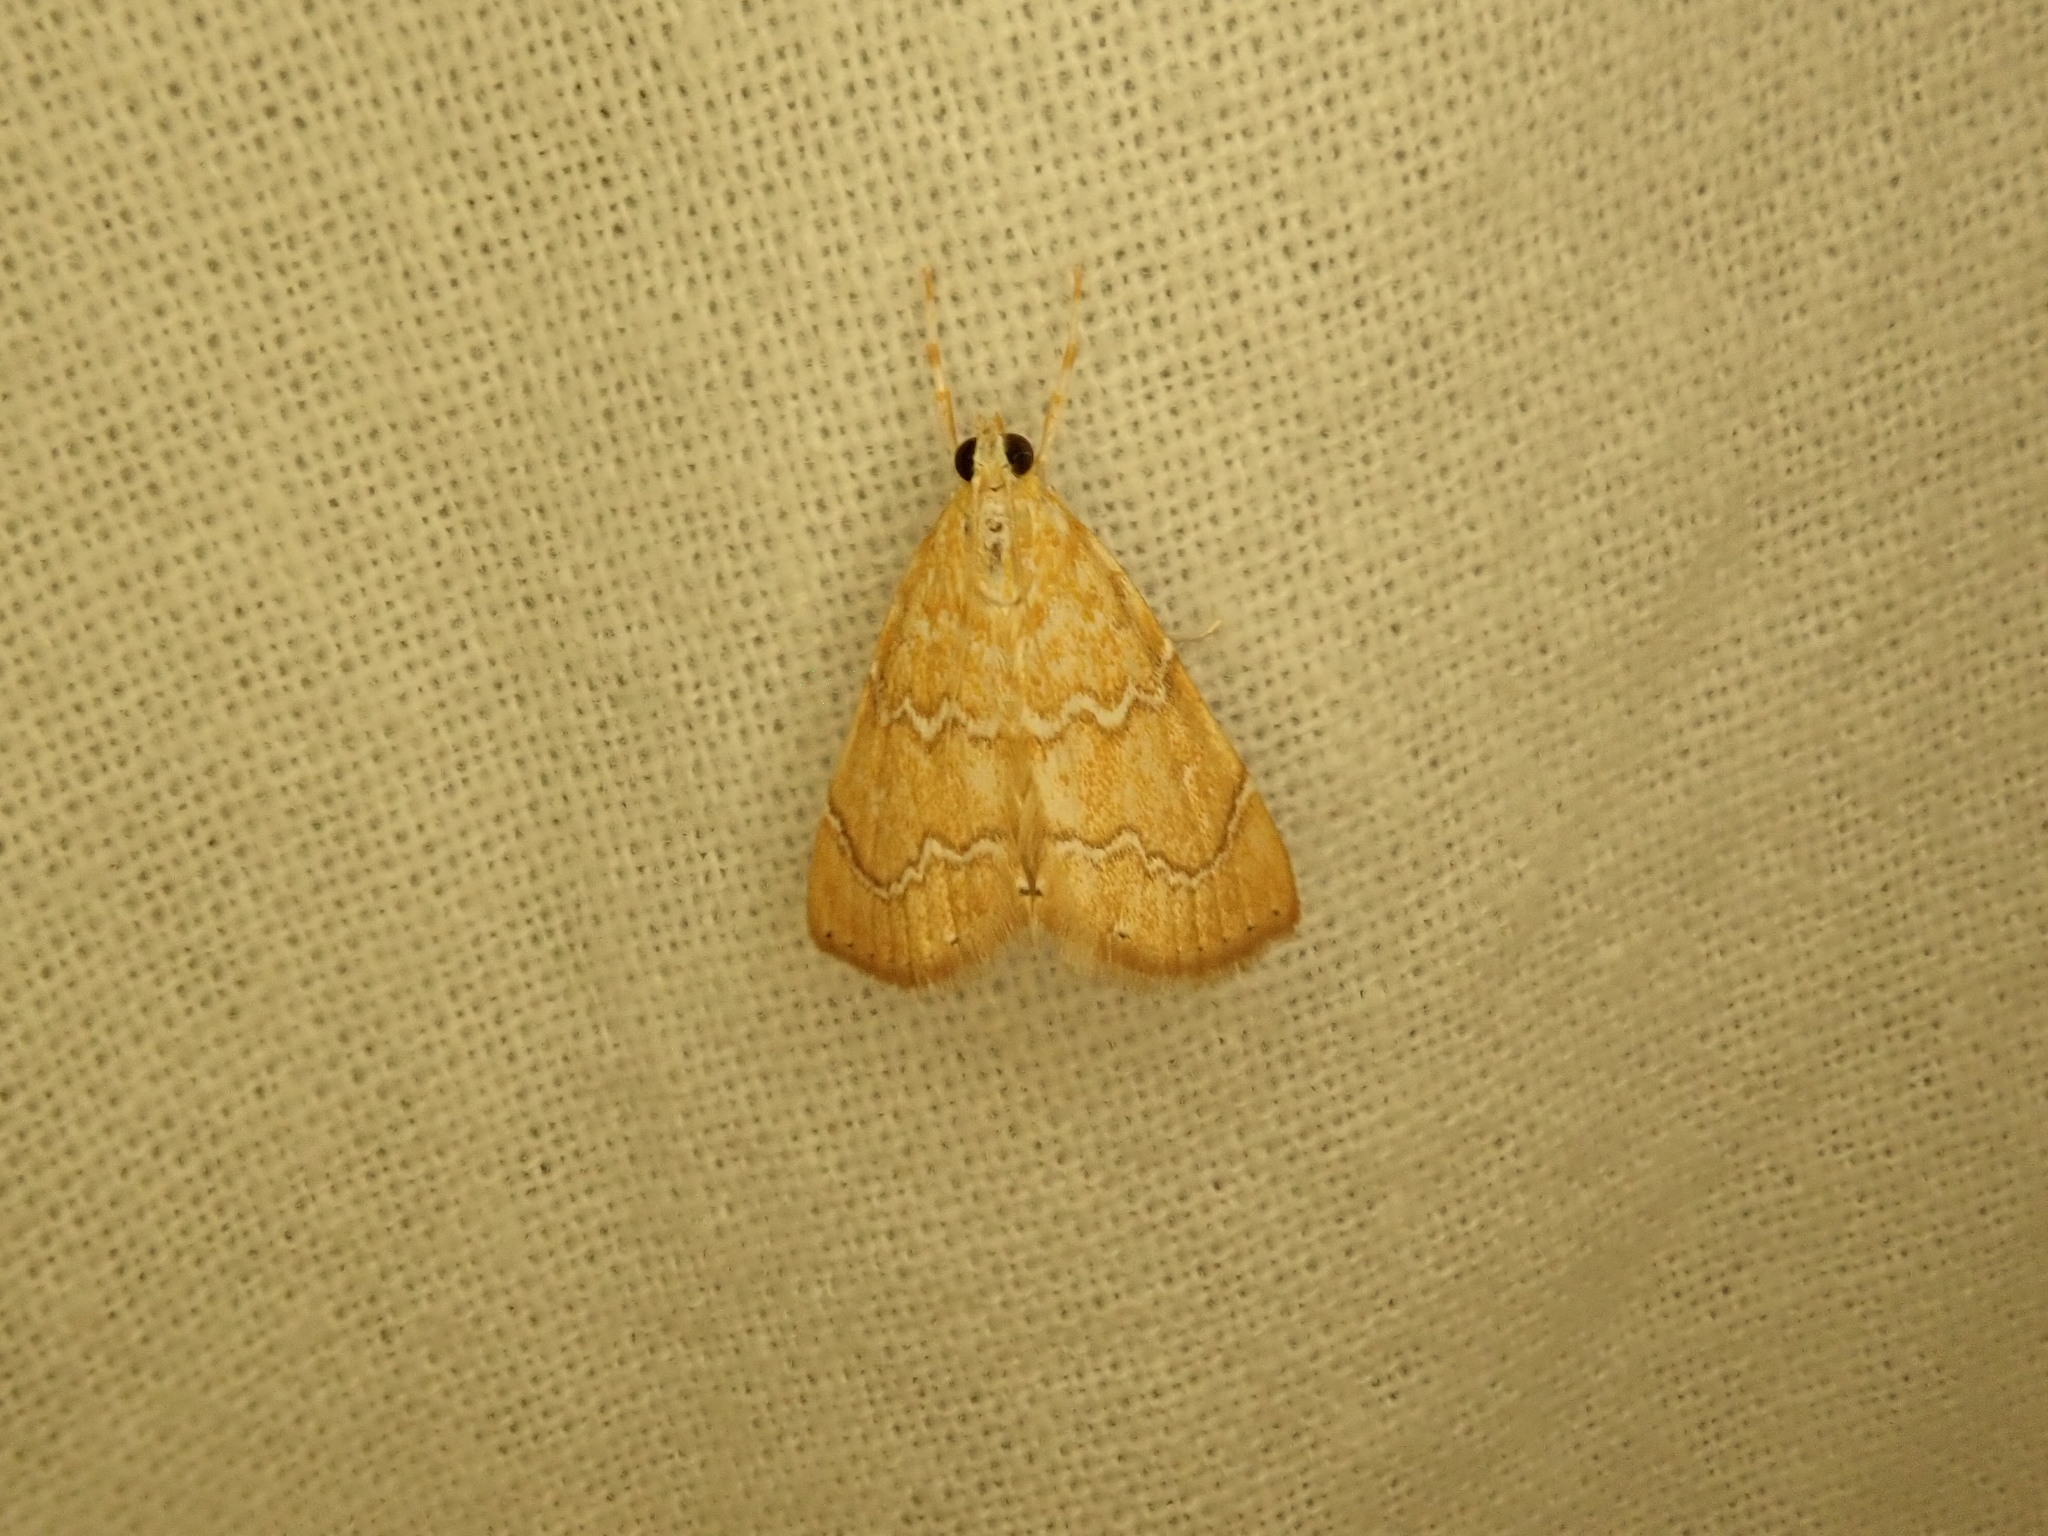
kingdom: Animalia
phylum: Arthropoda
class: Insecta
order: Lepidoptera
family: Crambidae
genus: Glaphyria
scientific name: Glaphyria sesquistrialis
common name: White-roped glaphyria
